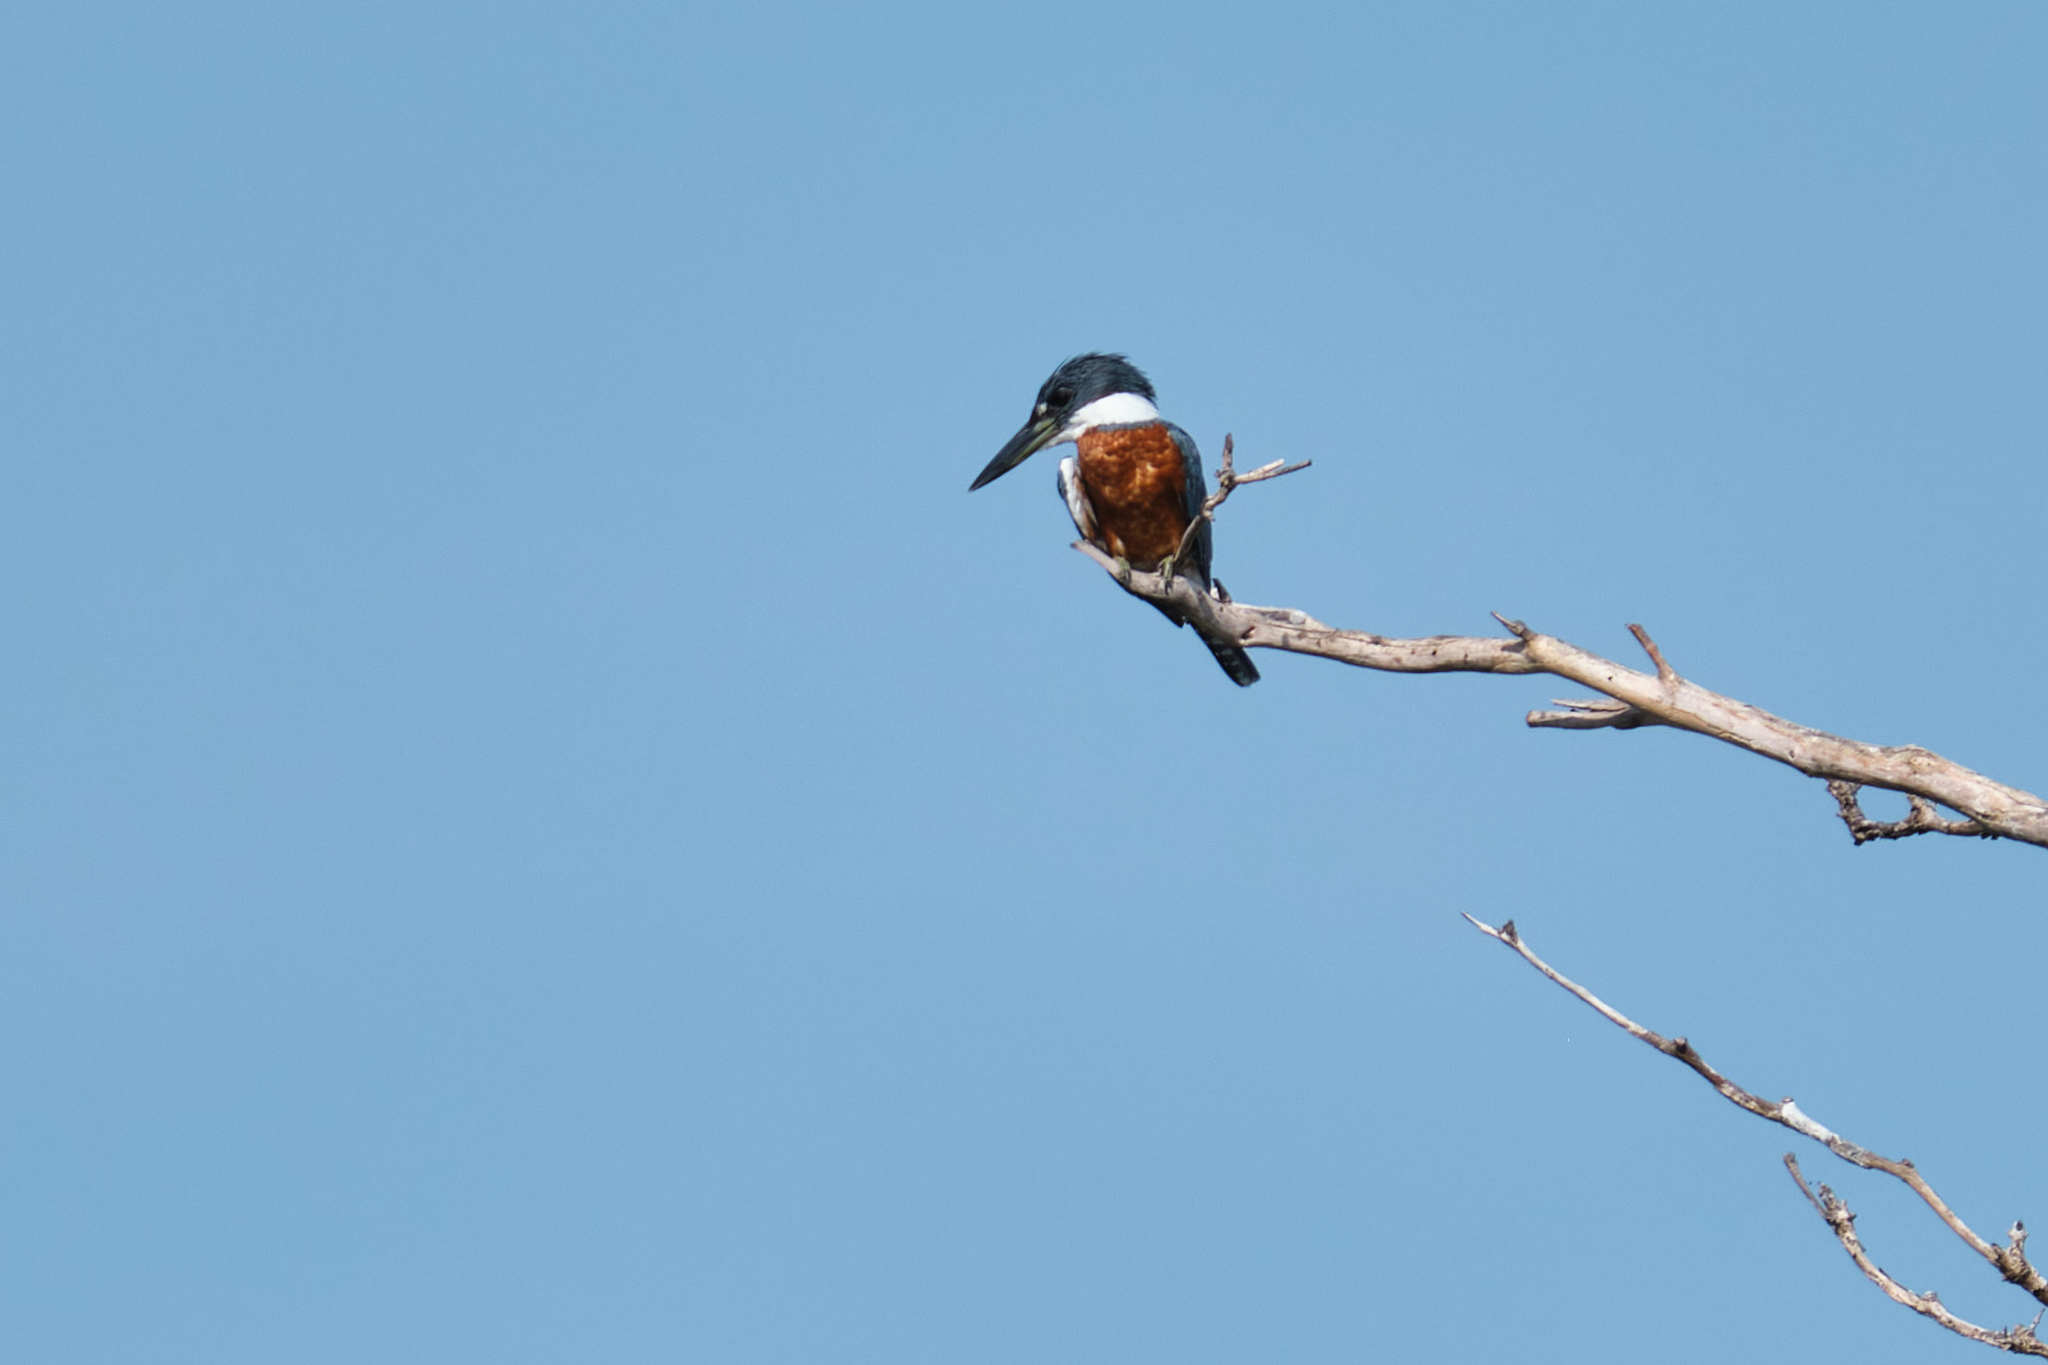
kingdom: Animalia
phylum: Chordata
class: Aves
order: Coraciiformes
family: Alcedinidae
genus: Megaceryle
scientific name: Megaceryle torquata
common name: Ringed kingfisher
